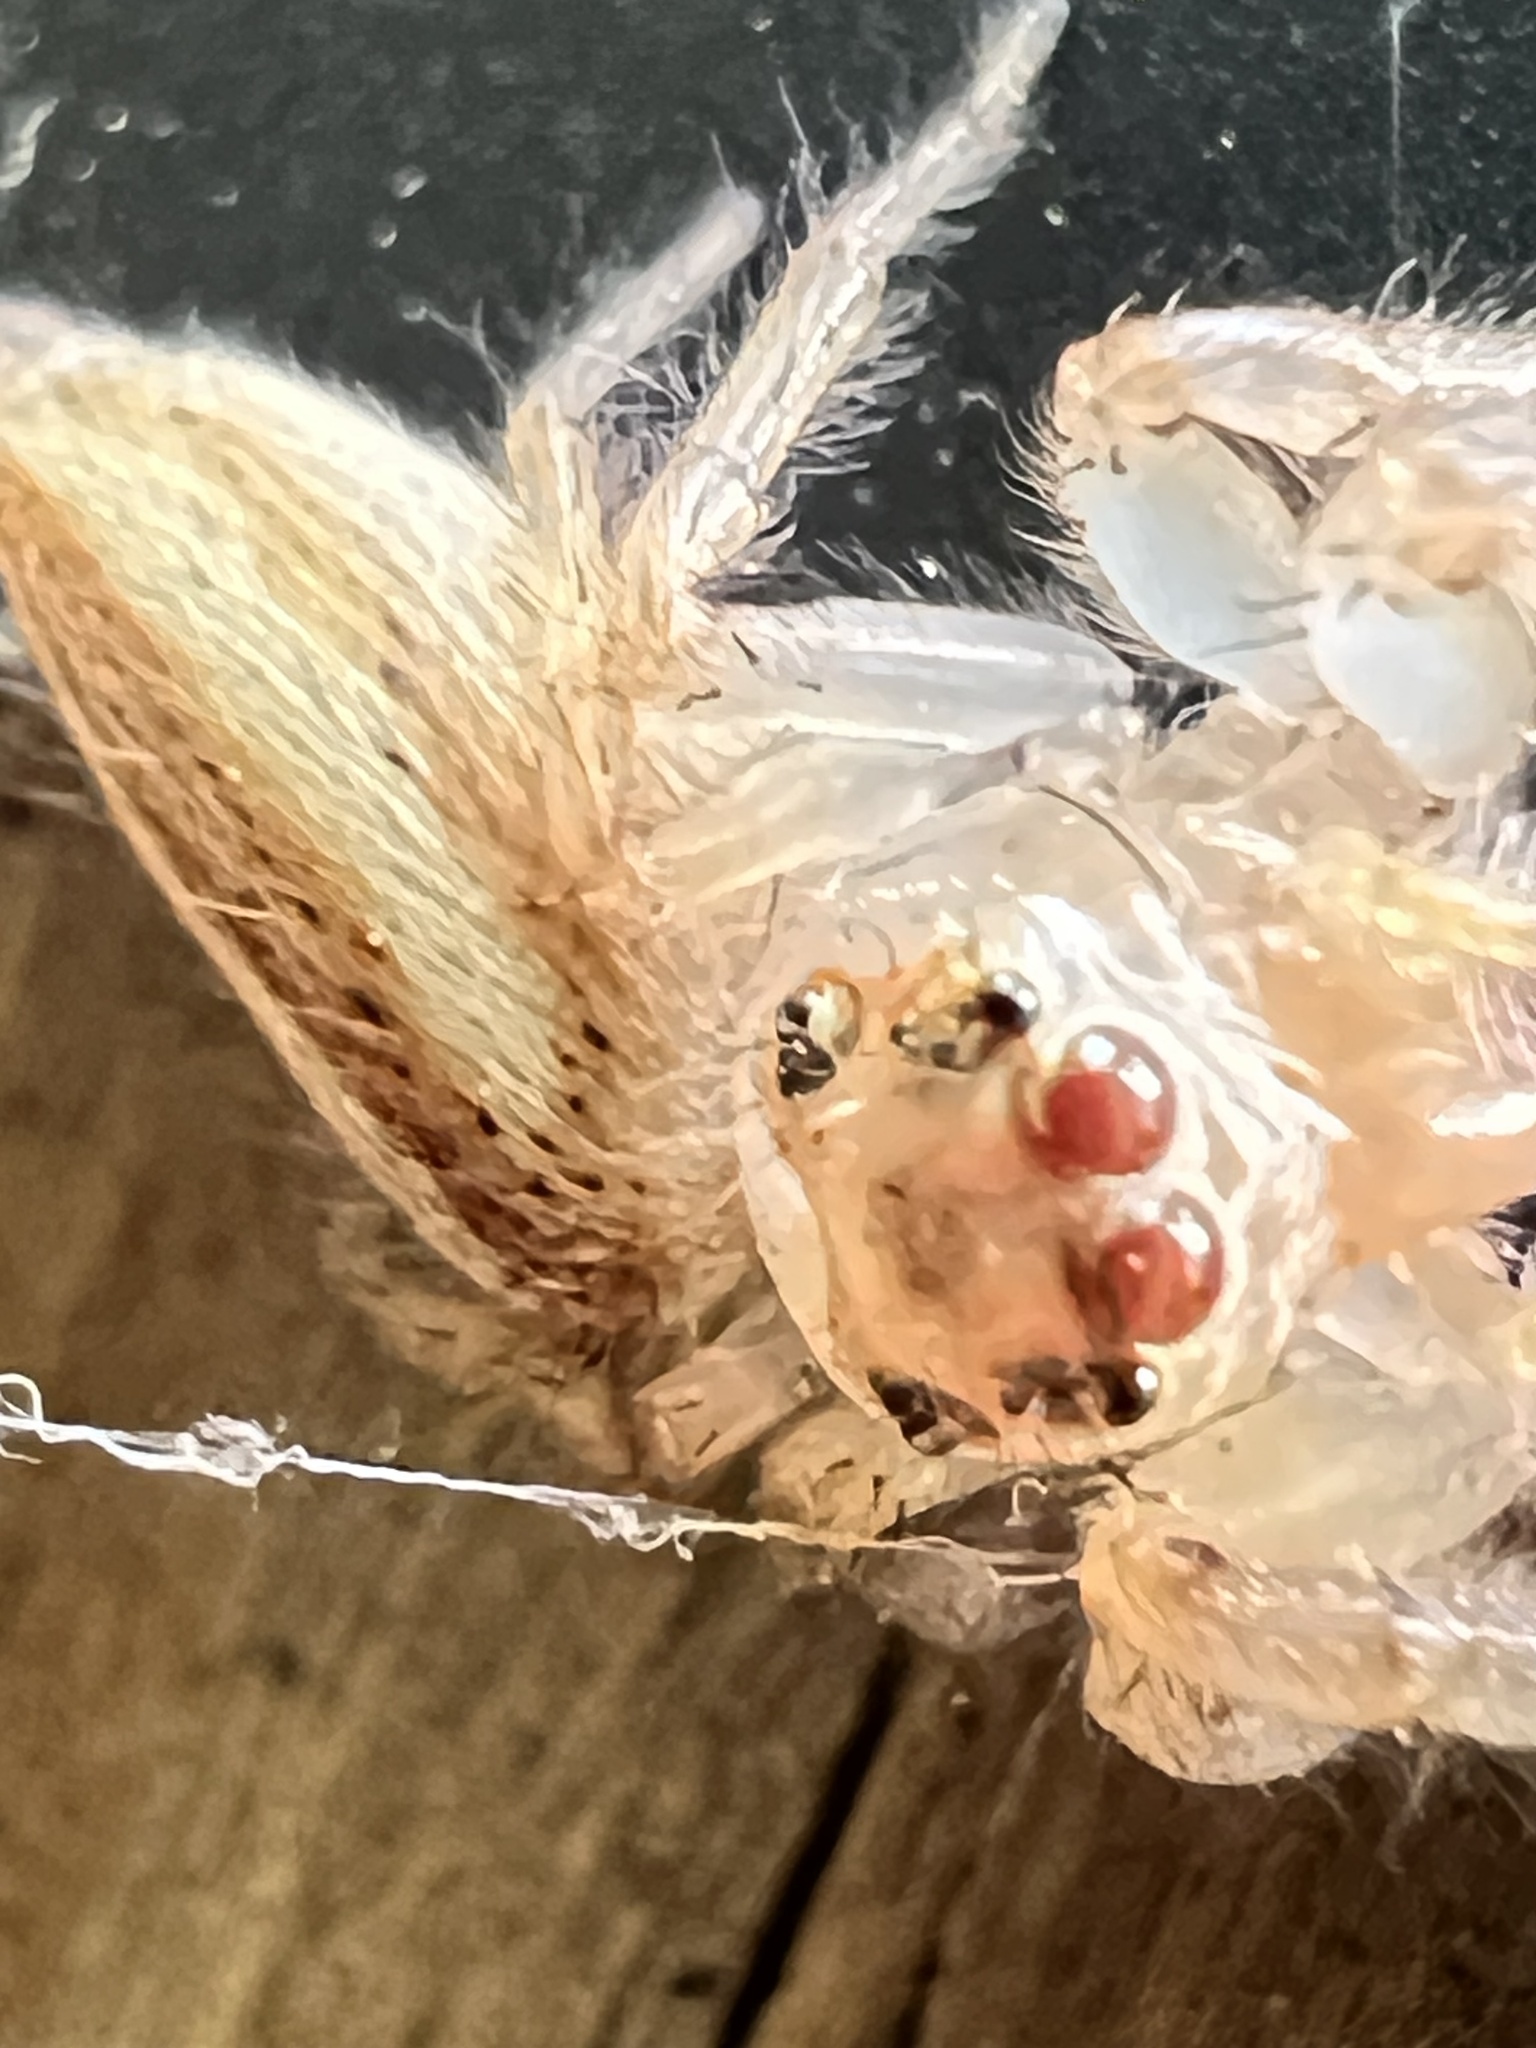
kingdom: Animalia
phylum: Arthropoda
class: Arachnida
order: Araneae
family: Salticidae
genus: Colonus
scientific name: Colonus sylvanus
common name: Jumping spiders
